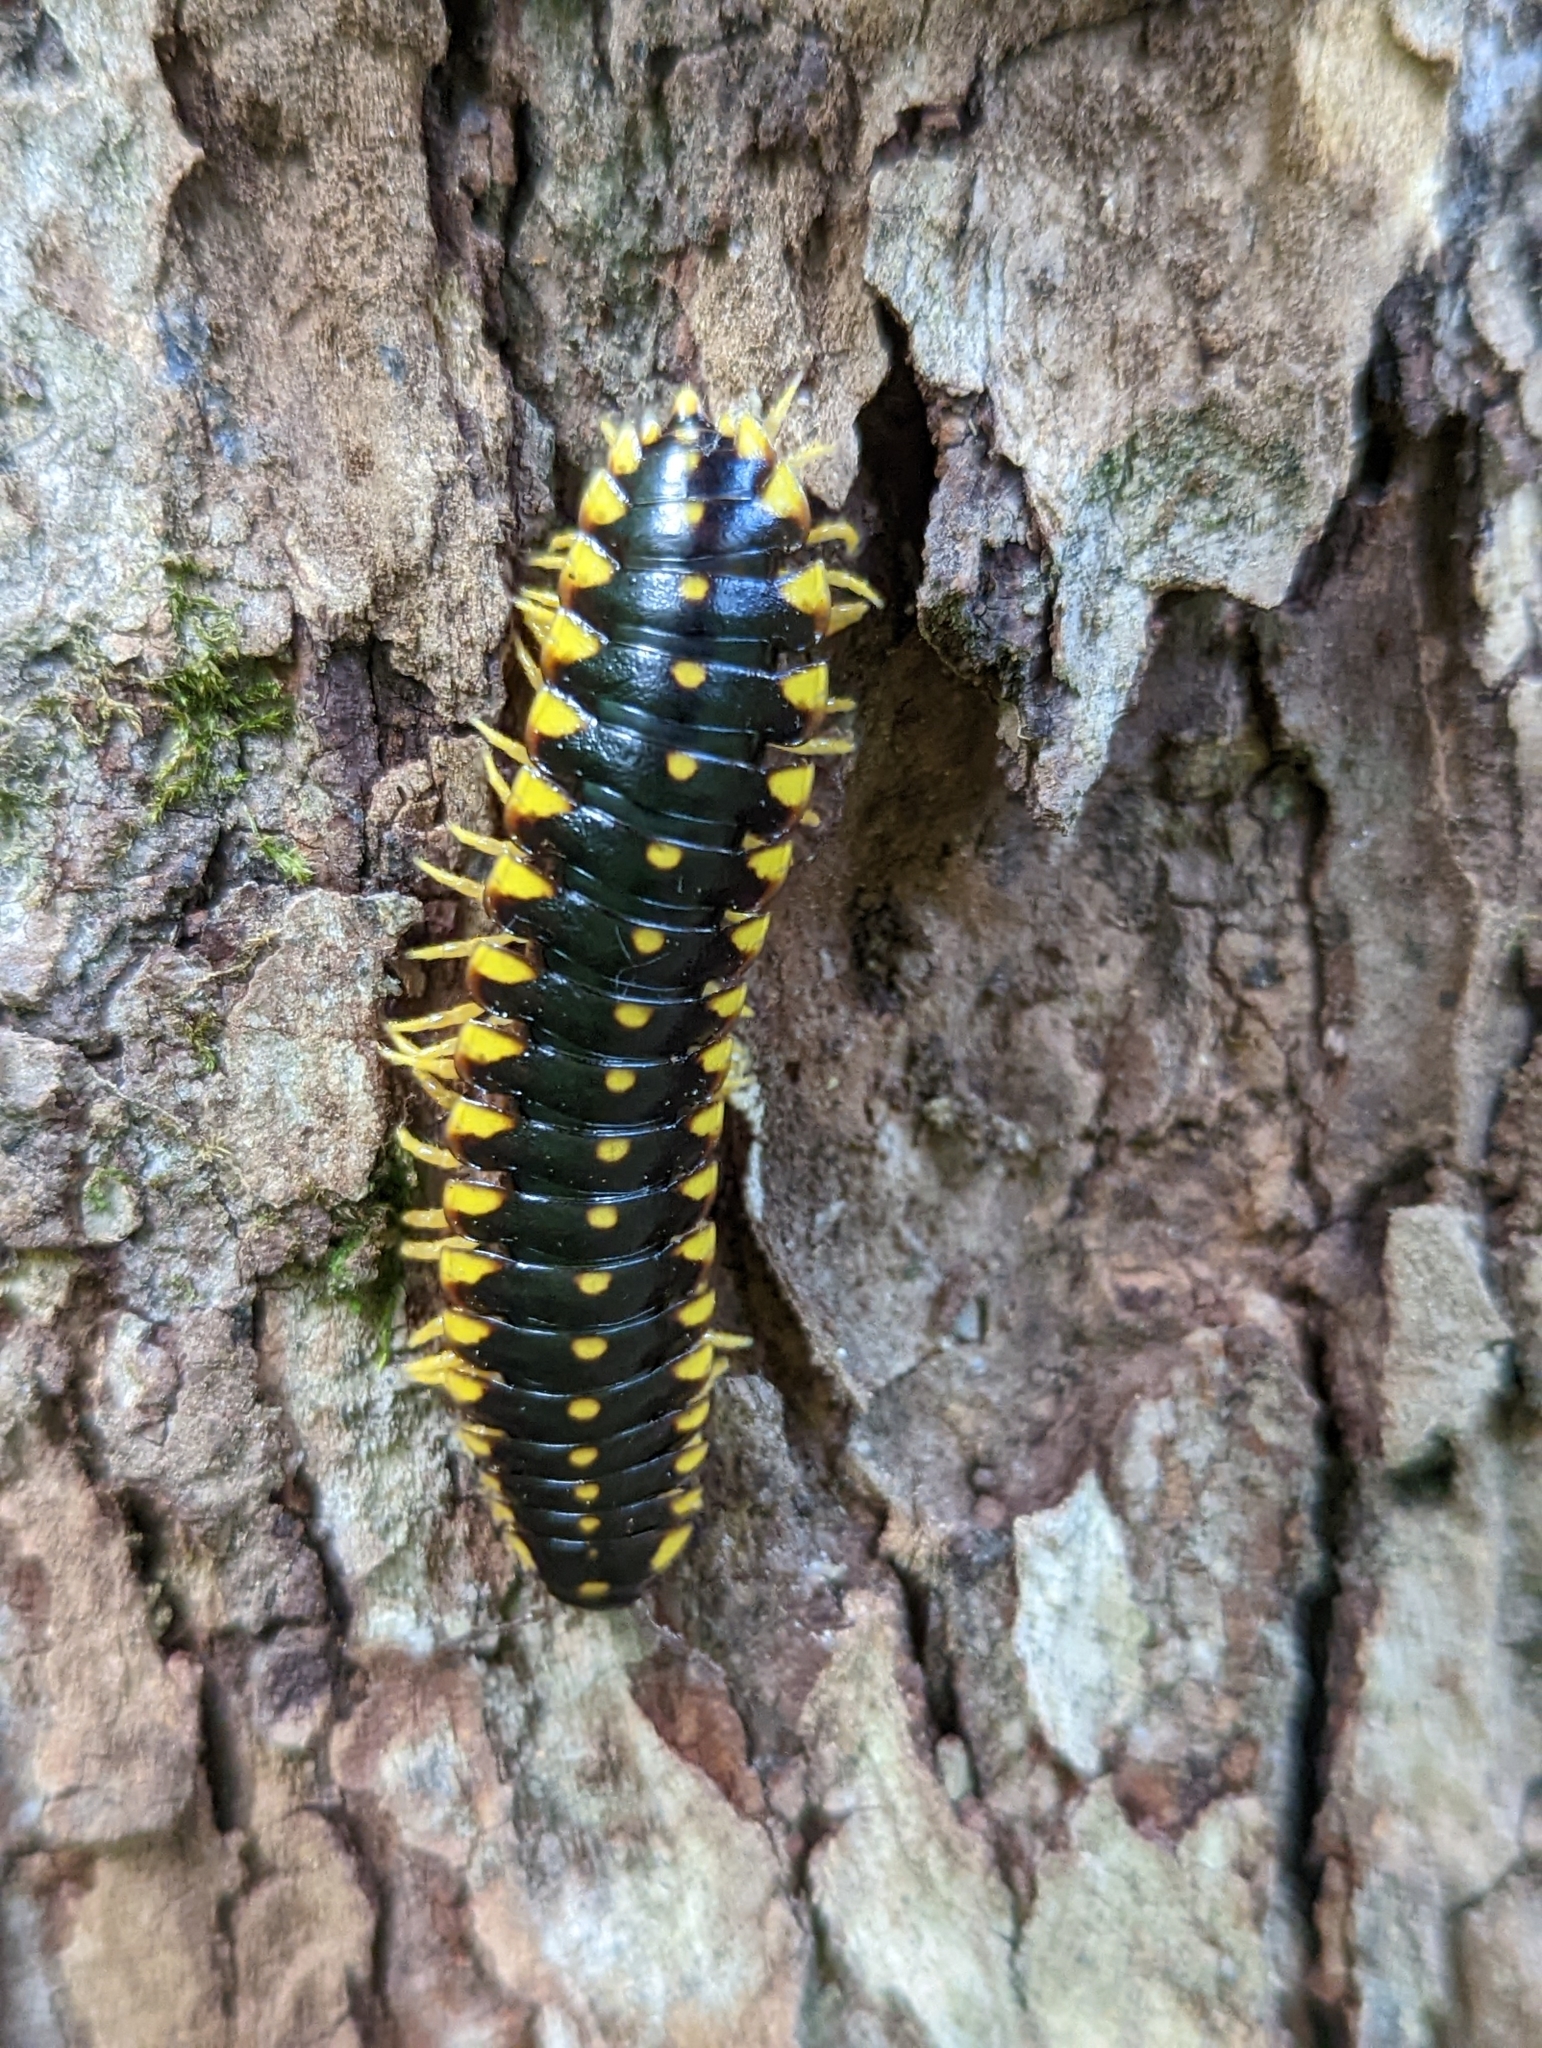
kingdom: Animalia
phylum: Arthropoda
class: Diplopoda
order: Polydesmida
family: Xystodesmidae
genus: Apheloria
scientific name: Apheloria montana
